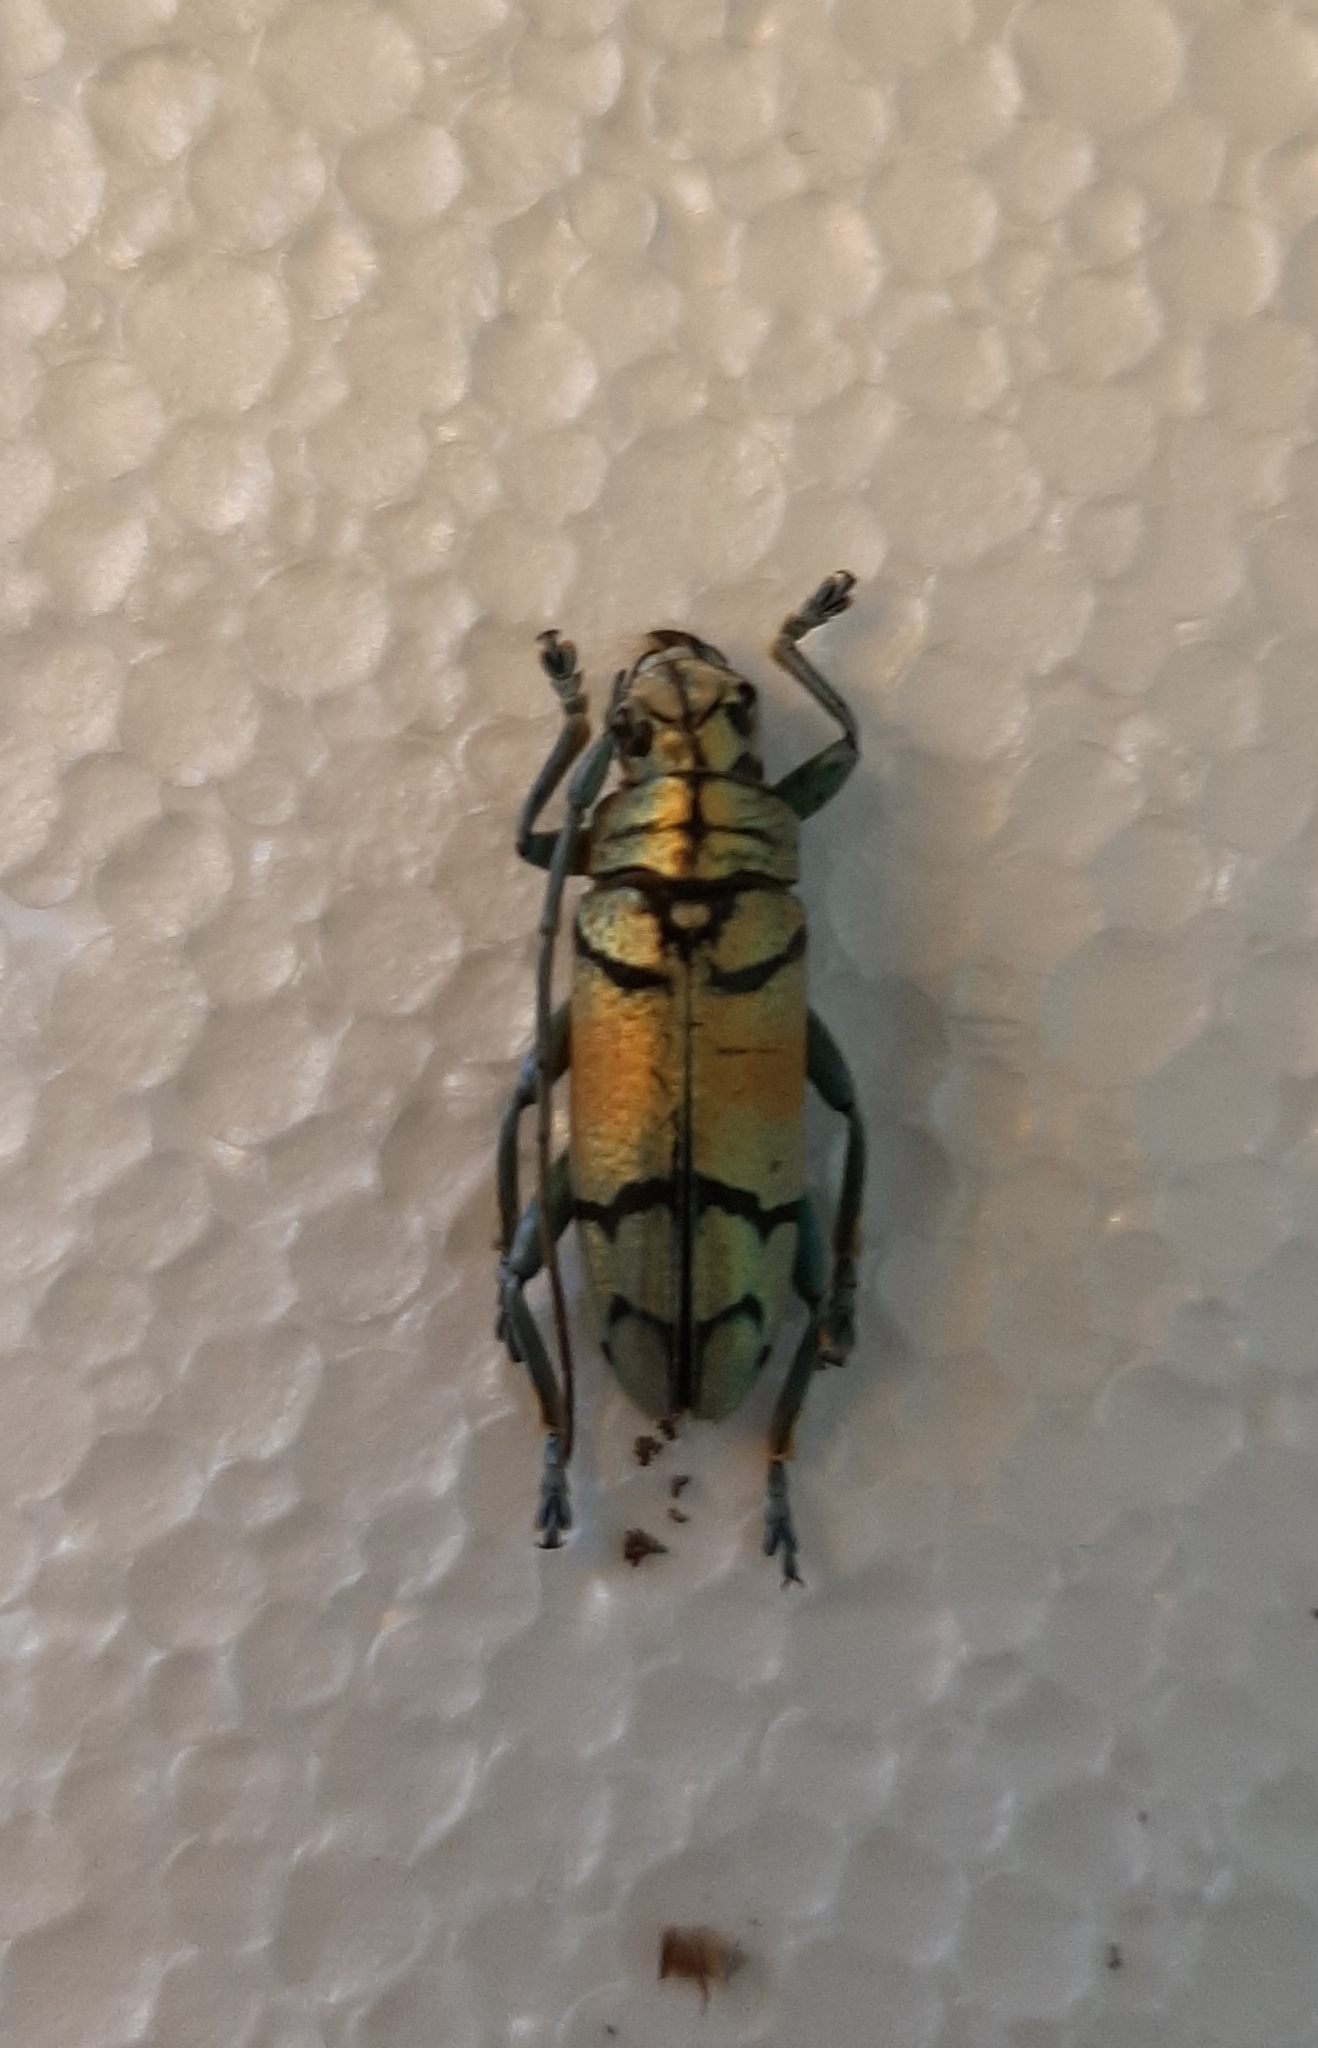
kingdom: Animalia
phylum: Arthropoda
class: Insecta
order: Coleoptera
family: Cerambycidae
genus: Sulawesiella
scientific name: Sulawesiella rafaelae
